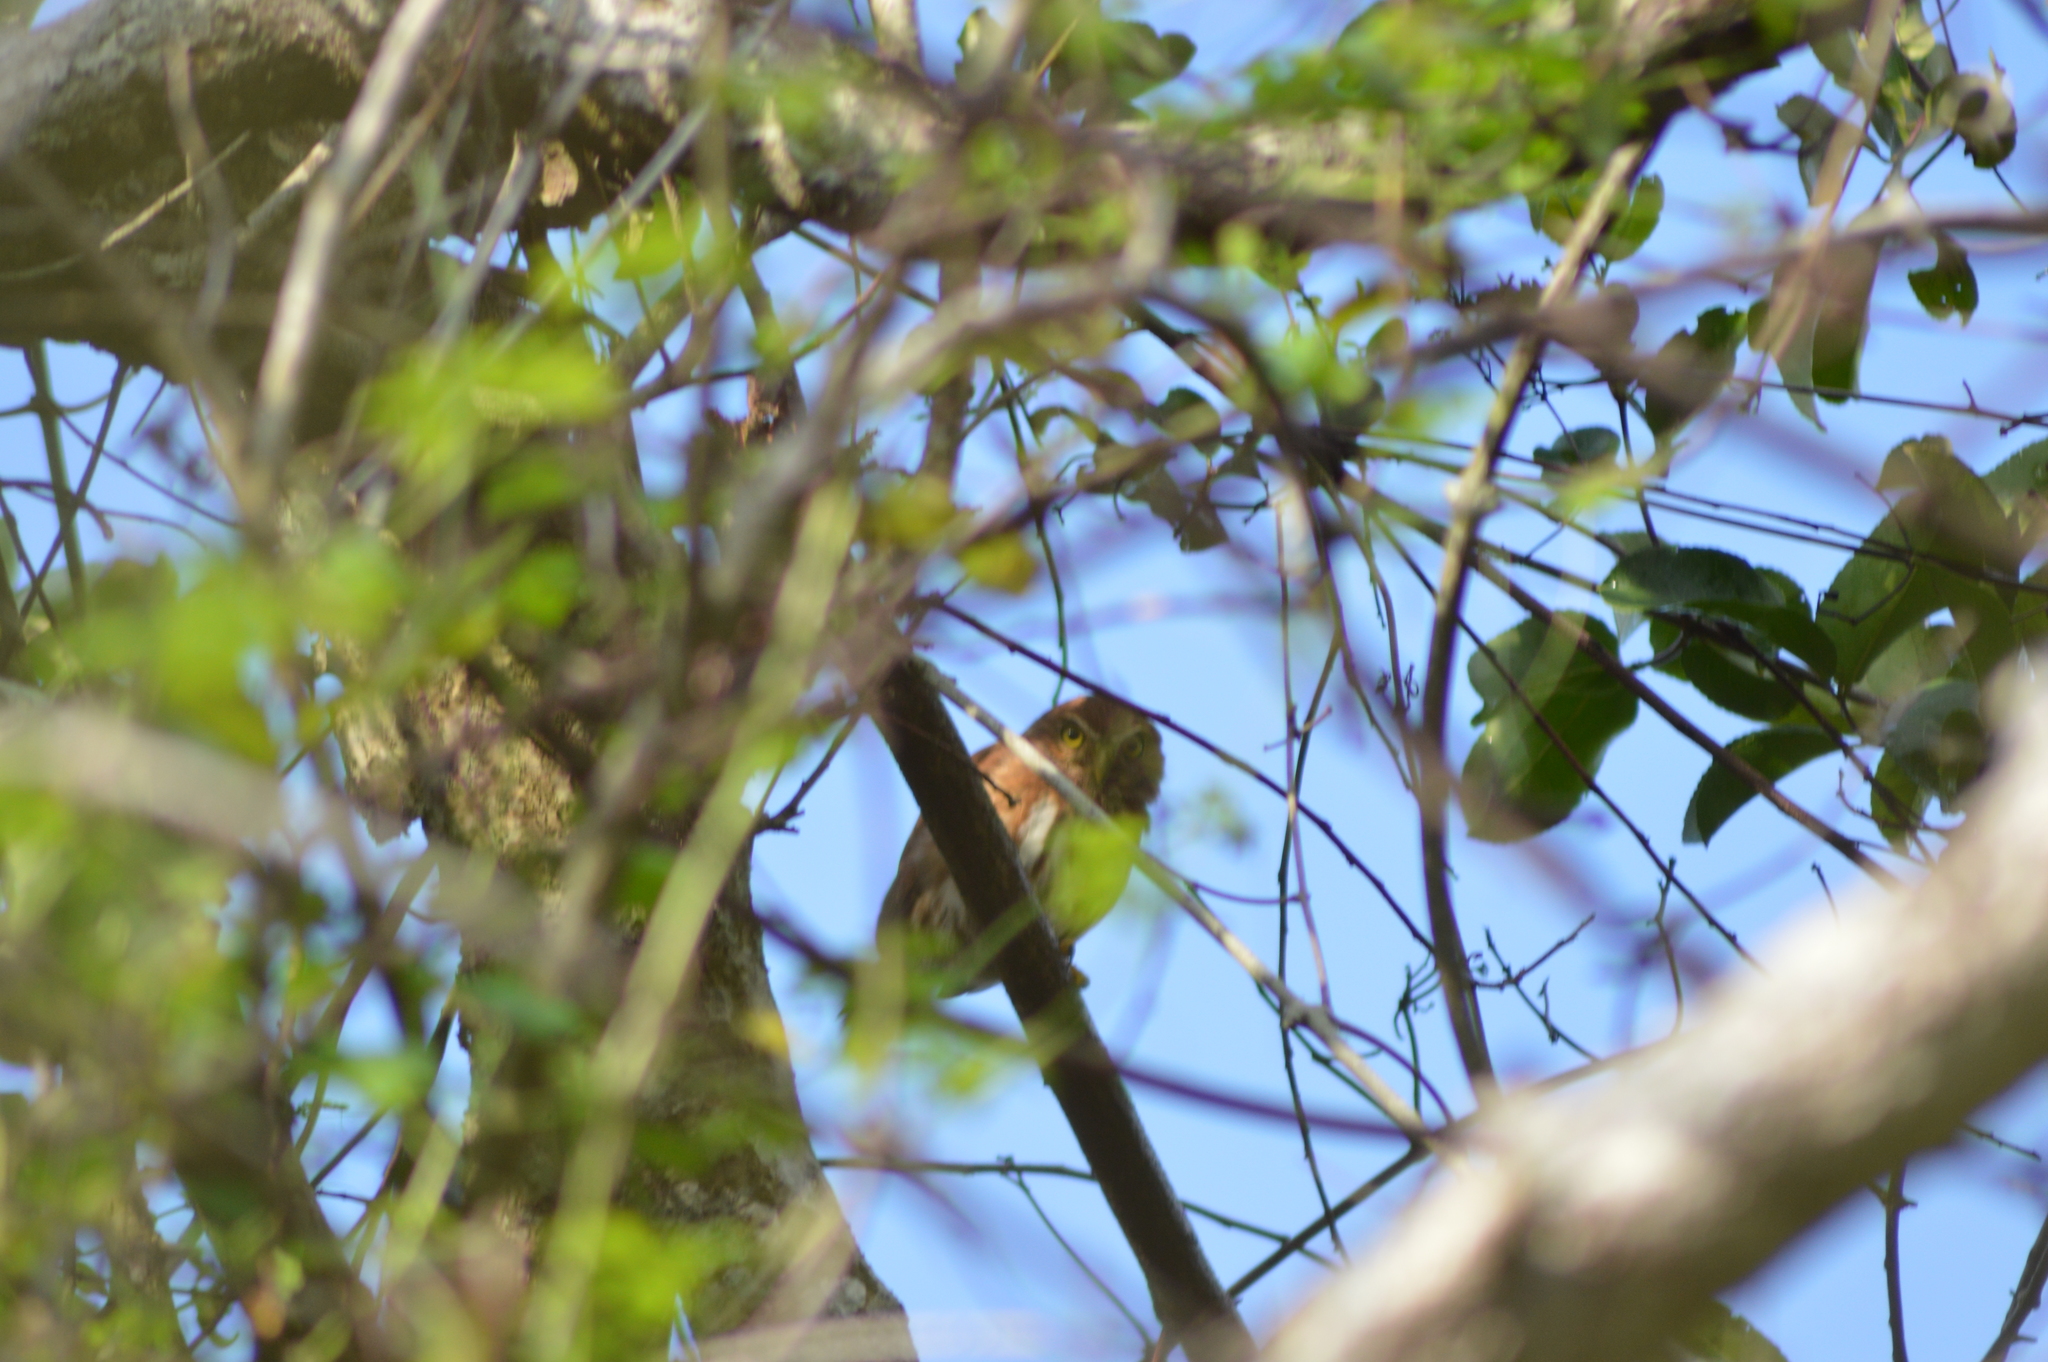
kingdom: Animalia
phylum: Chordata
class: Aves
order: Strigiformes
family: Strigidae
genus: Glaucidium
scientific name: Glaucidium brasilianum
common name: Ferruginous pygmy-owl
